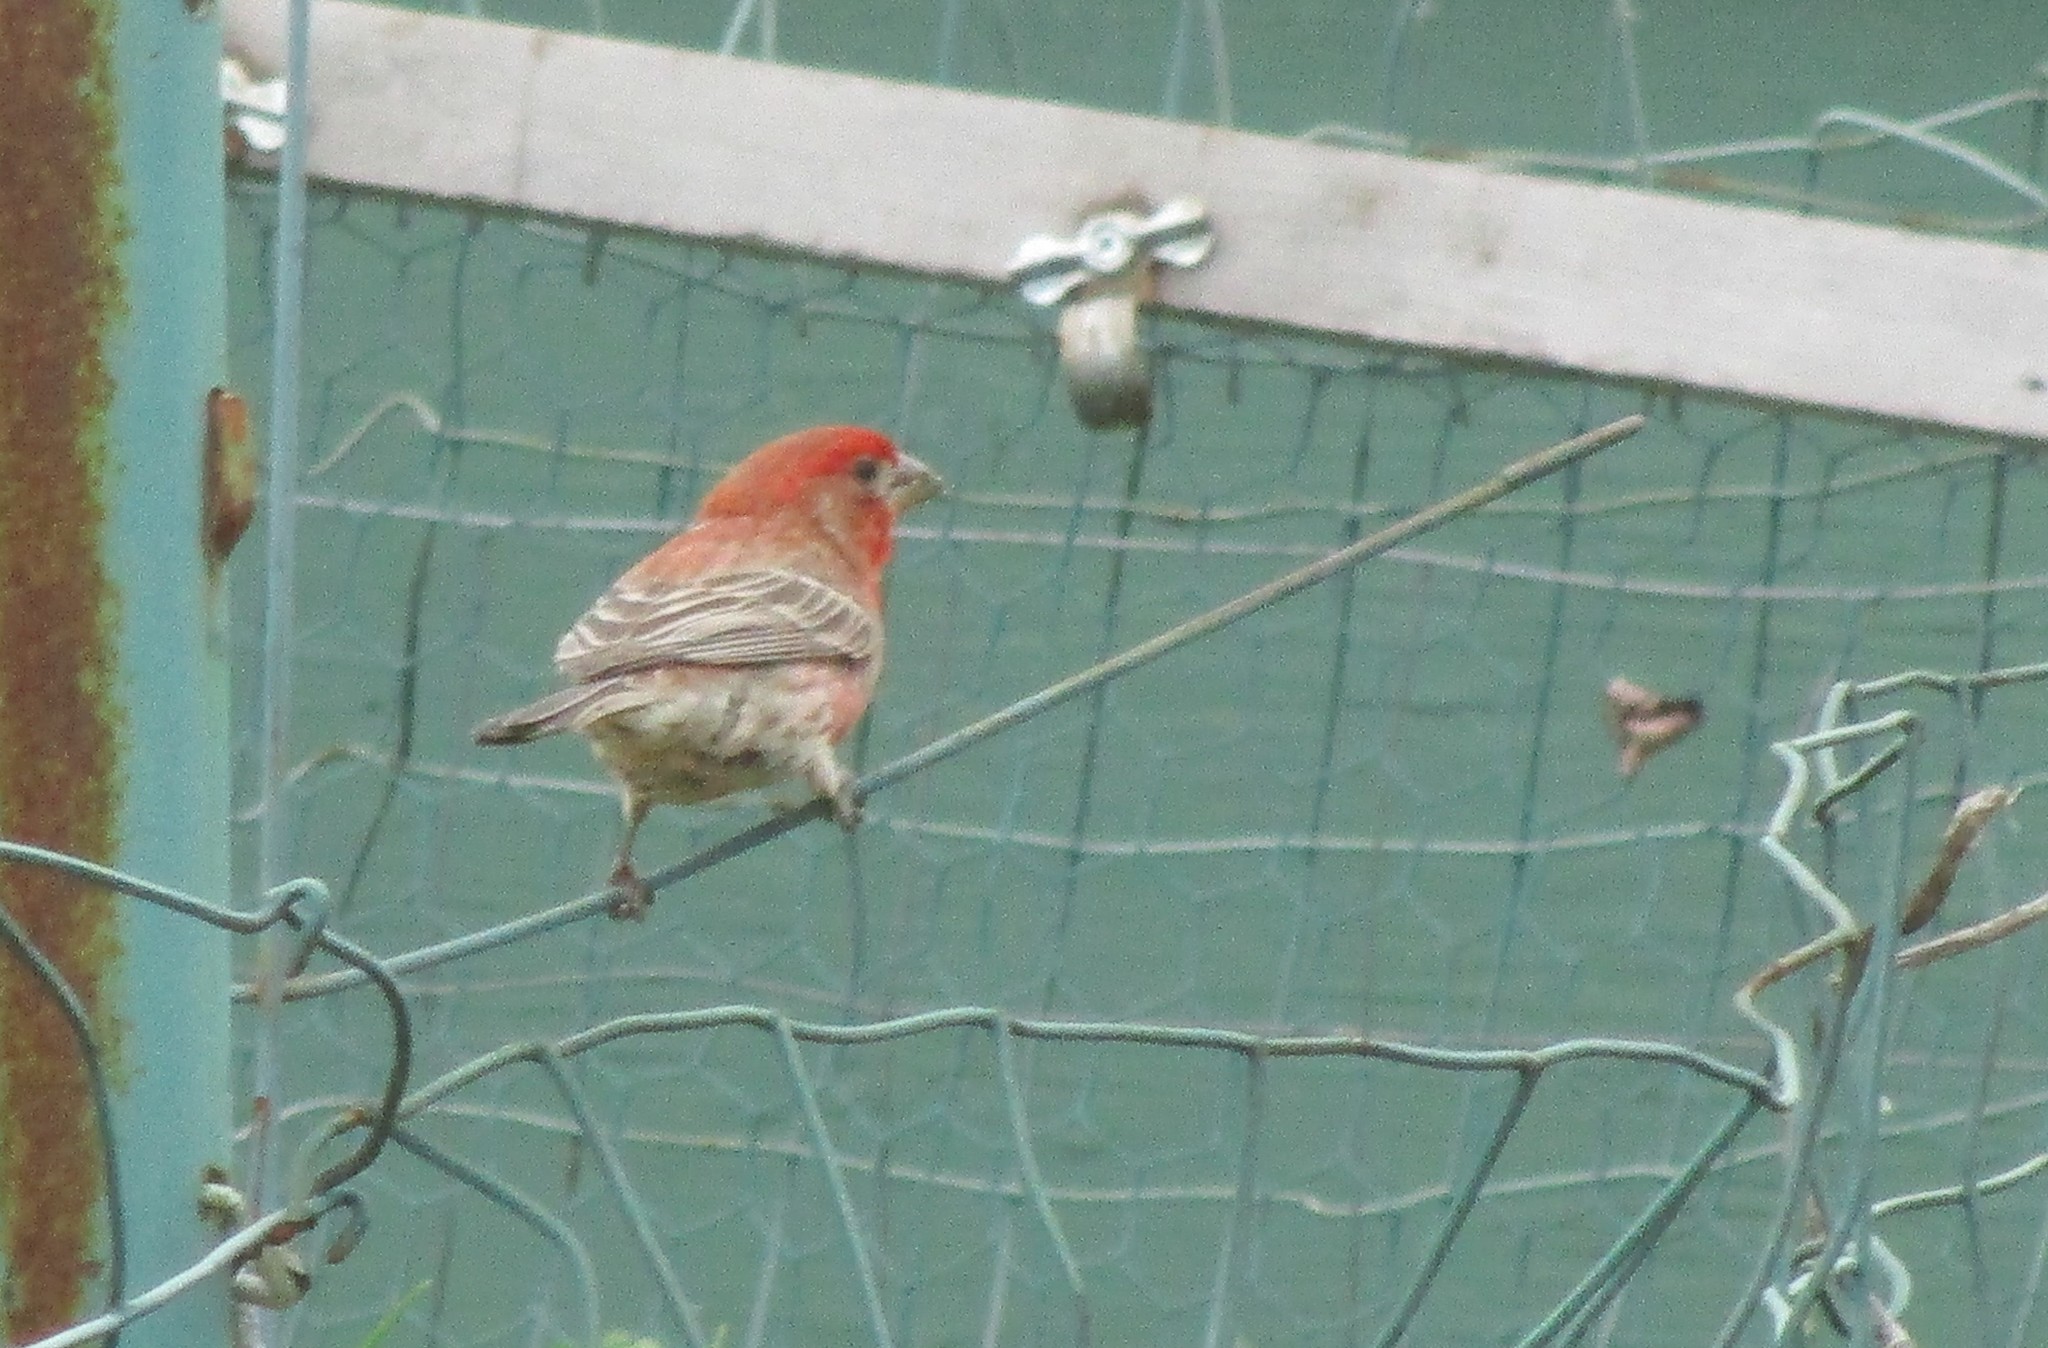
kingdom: Animalia
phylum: Chordata
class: Aves
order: Passeriformes
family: Fringillidae
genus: Haemorhous
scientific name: Haemorhous mexicanus
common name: House finch
